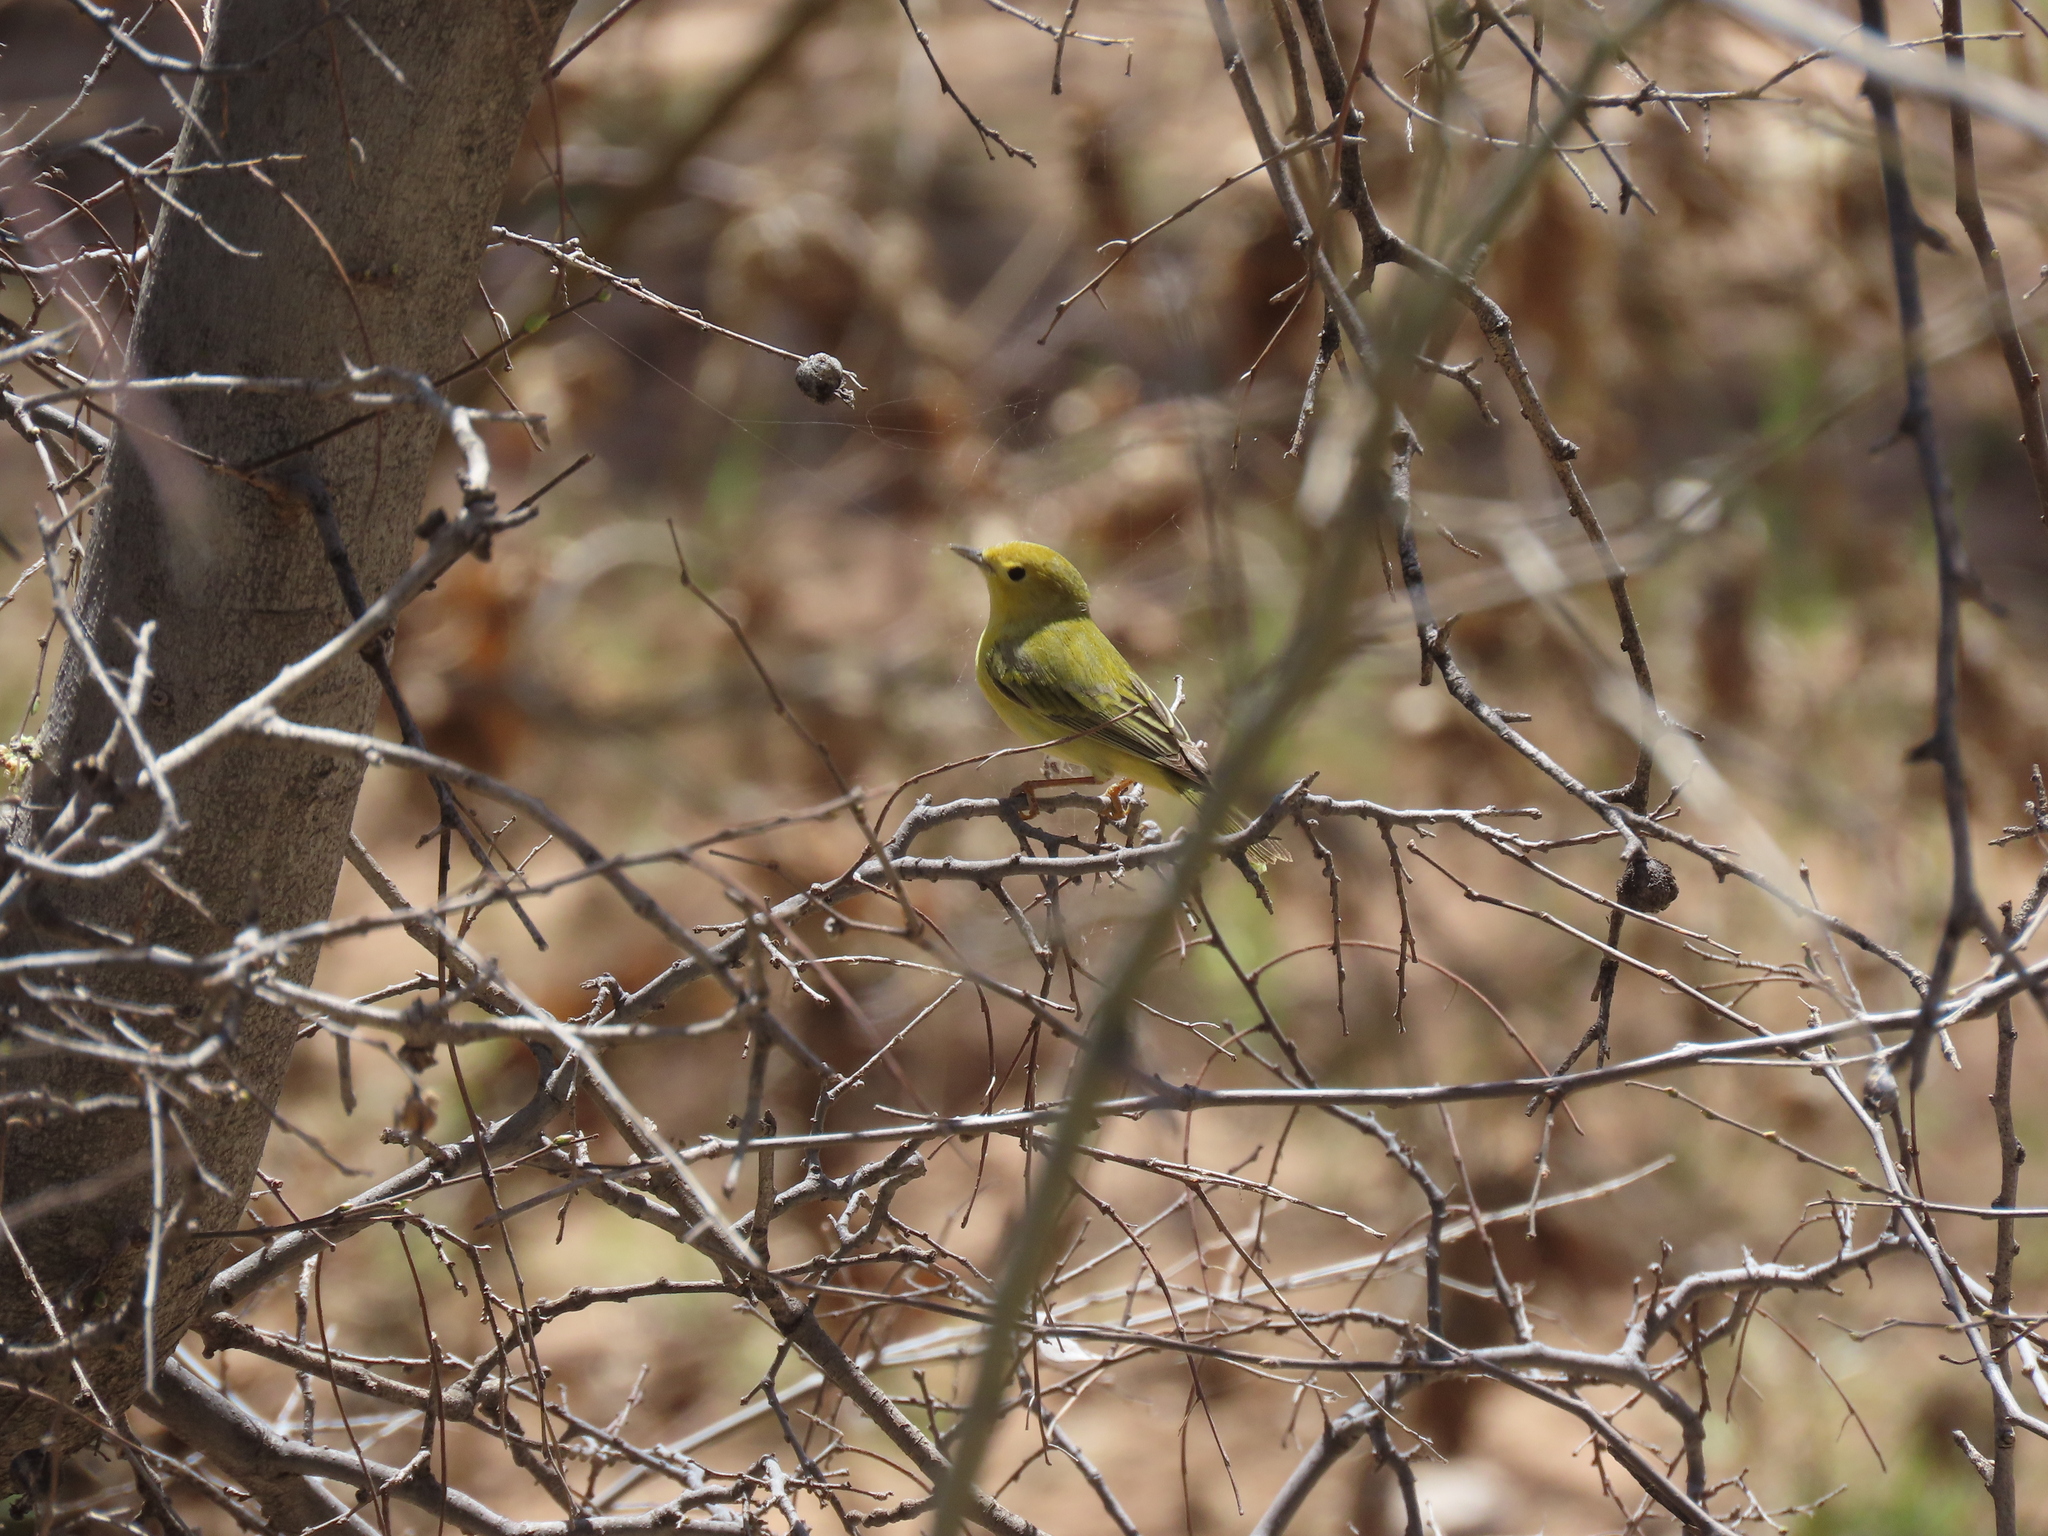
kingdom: Animalia
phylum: Chordata
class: Aves
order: Passeriformes
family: Parulidae
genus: Setophaga
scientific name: Setophaga petechia
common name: Yellow warbler
